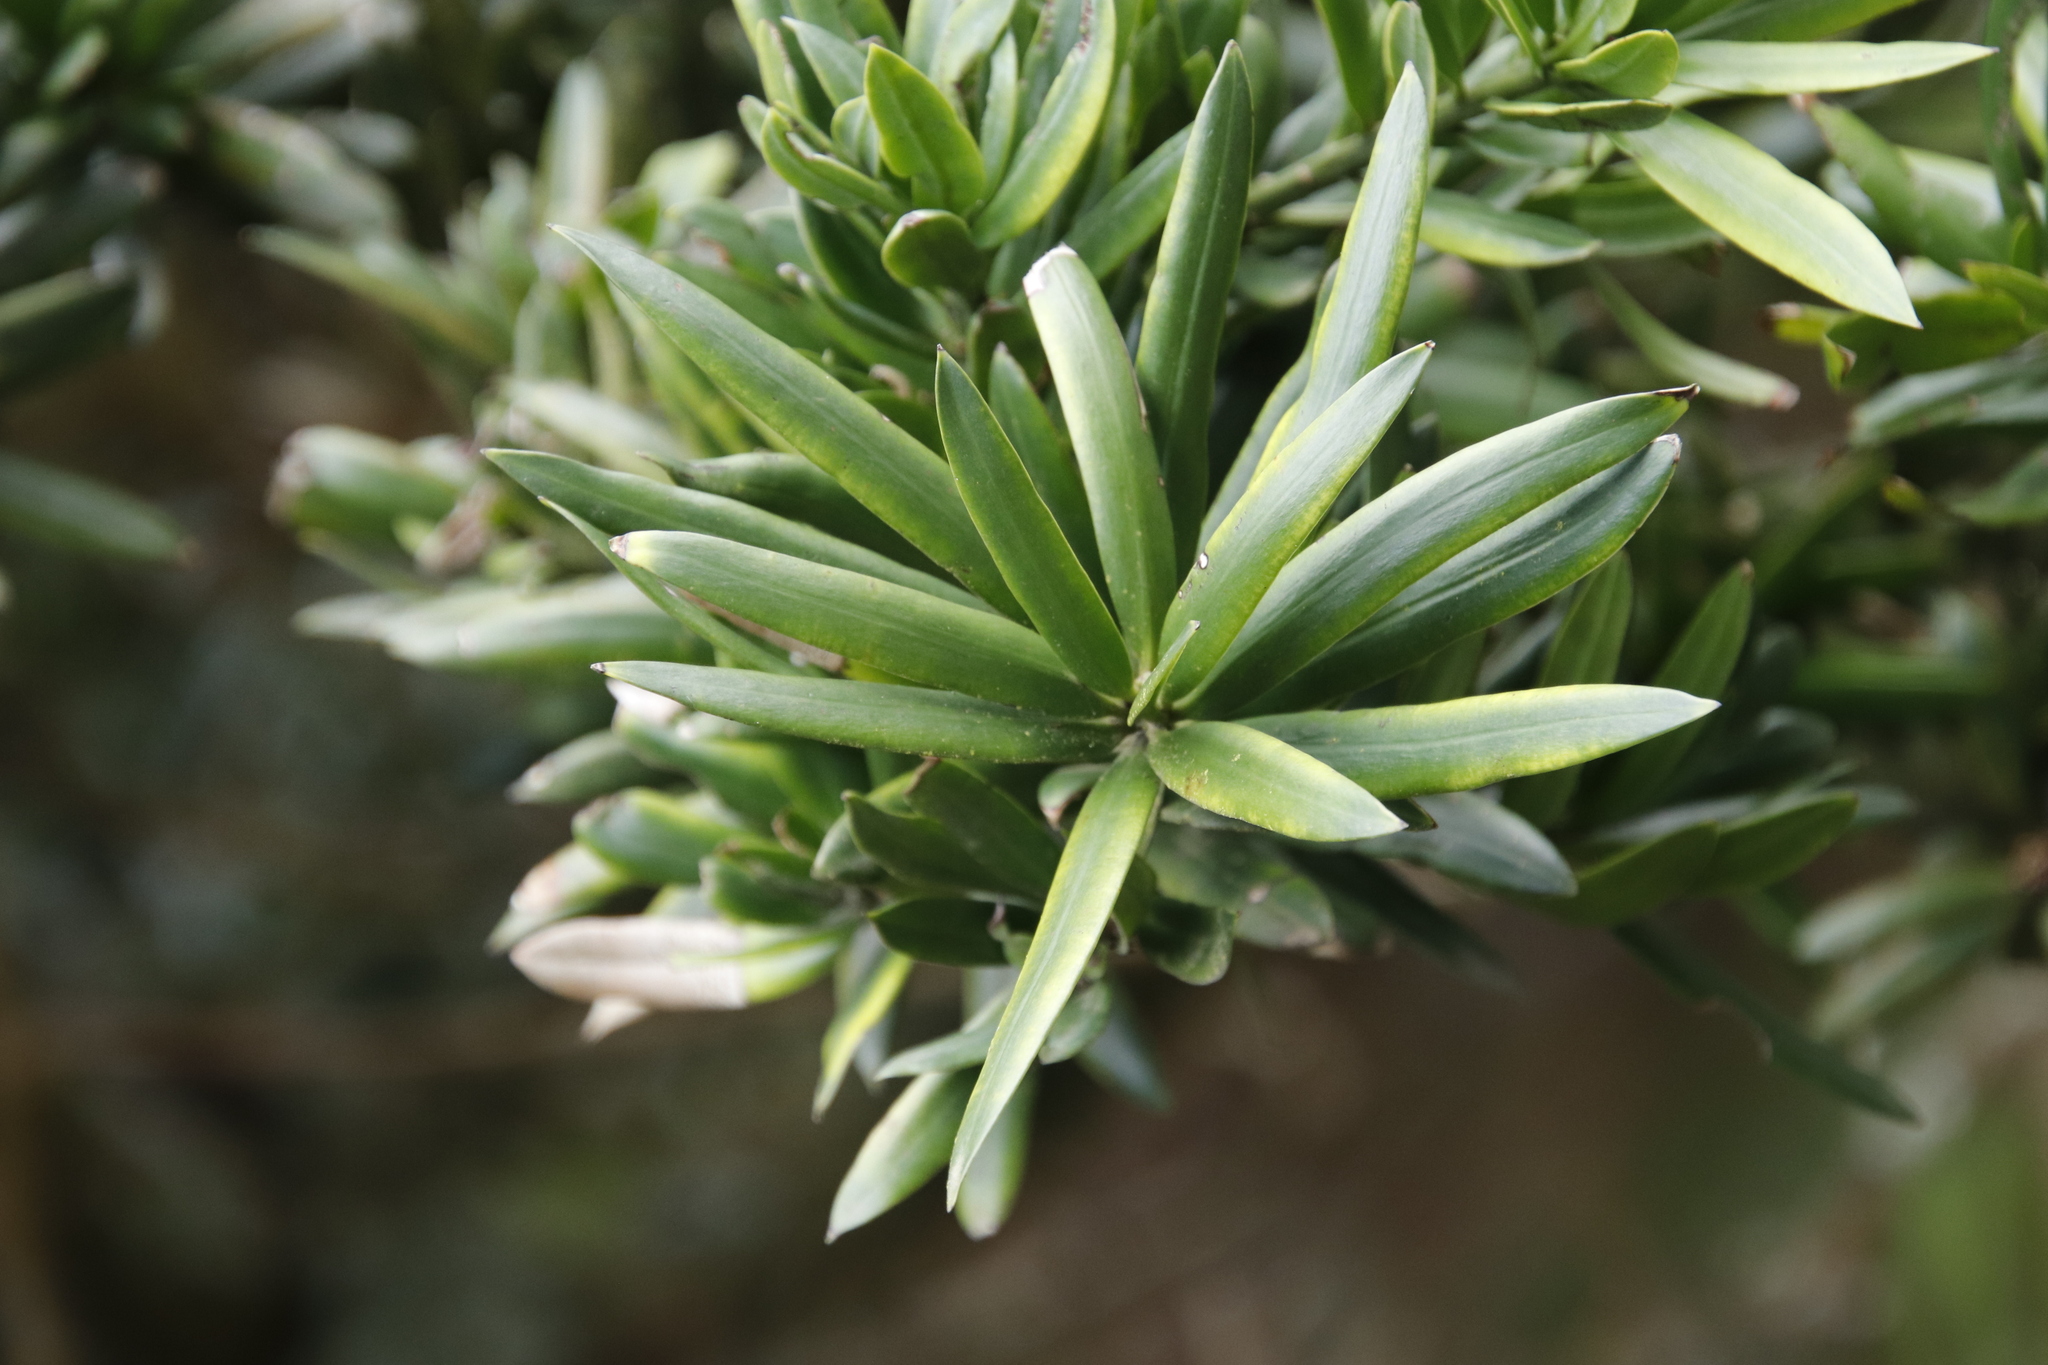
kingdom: Plantae
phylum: Tracheophyta
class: Pinopsida
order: Pinales
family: Podocarpaceae
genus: Podocarpus
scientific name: Podocarpus latifolius
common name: True yellowwood
